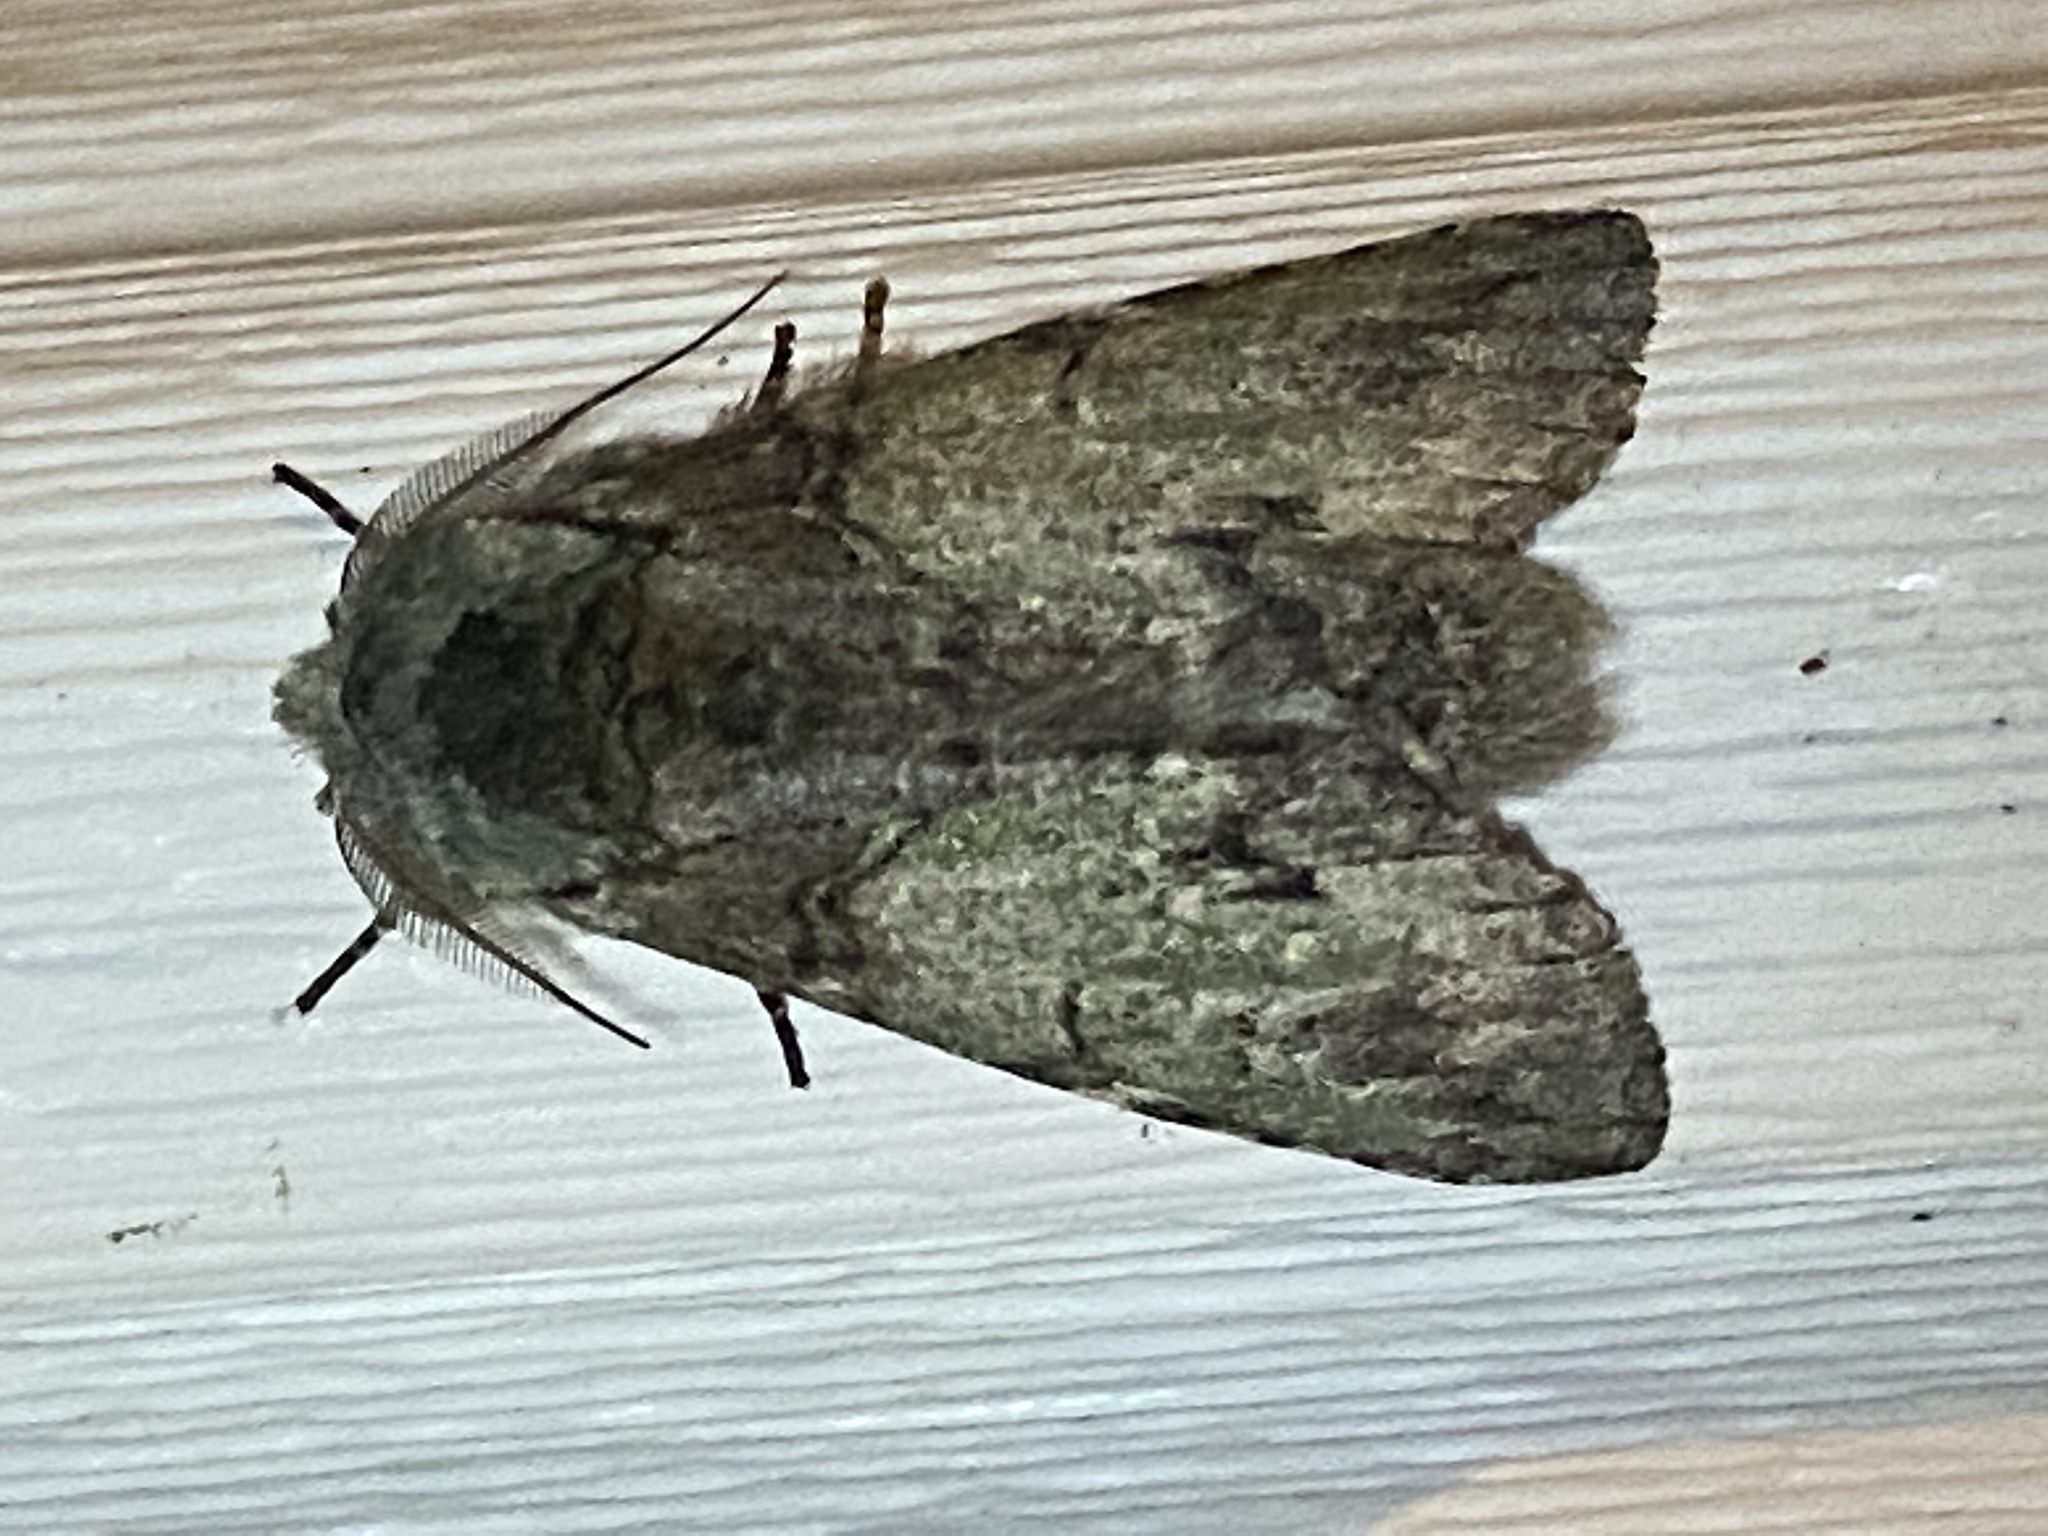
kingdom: Animalia
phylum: Arthropoda
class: Insecta
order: Lepidoptera
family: Notodontidae
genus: Macrurocampa
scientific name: Macrurocampa marthesia
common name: Mottled prominent
